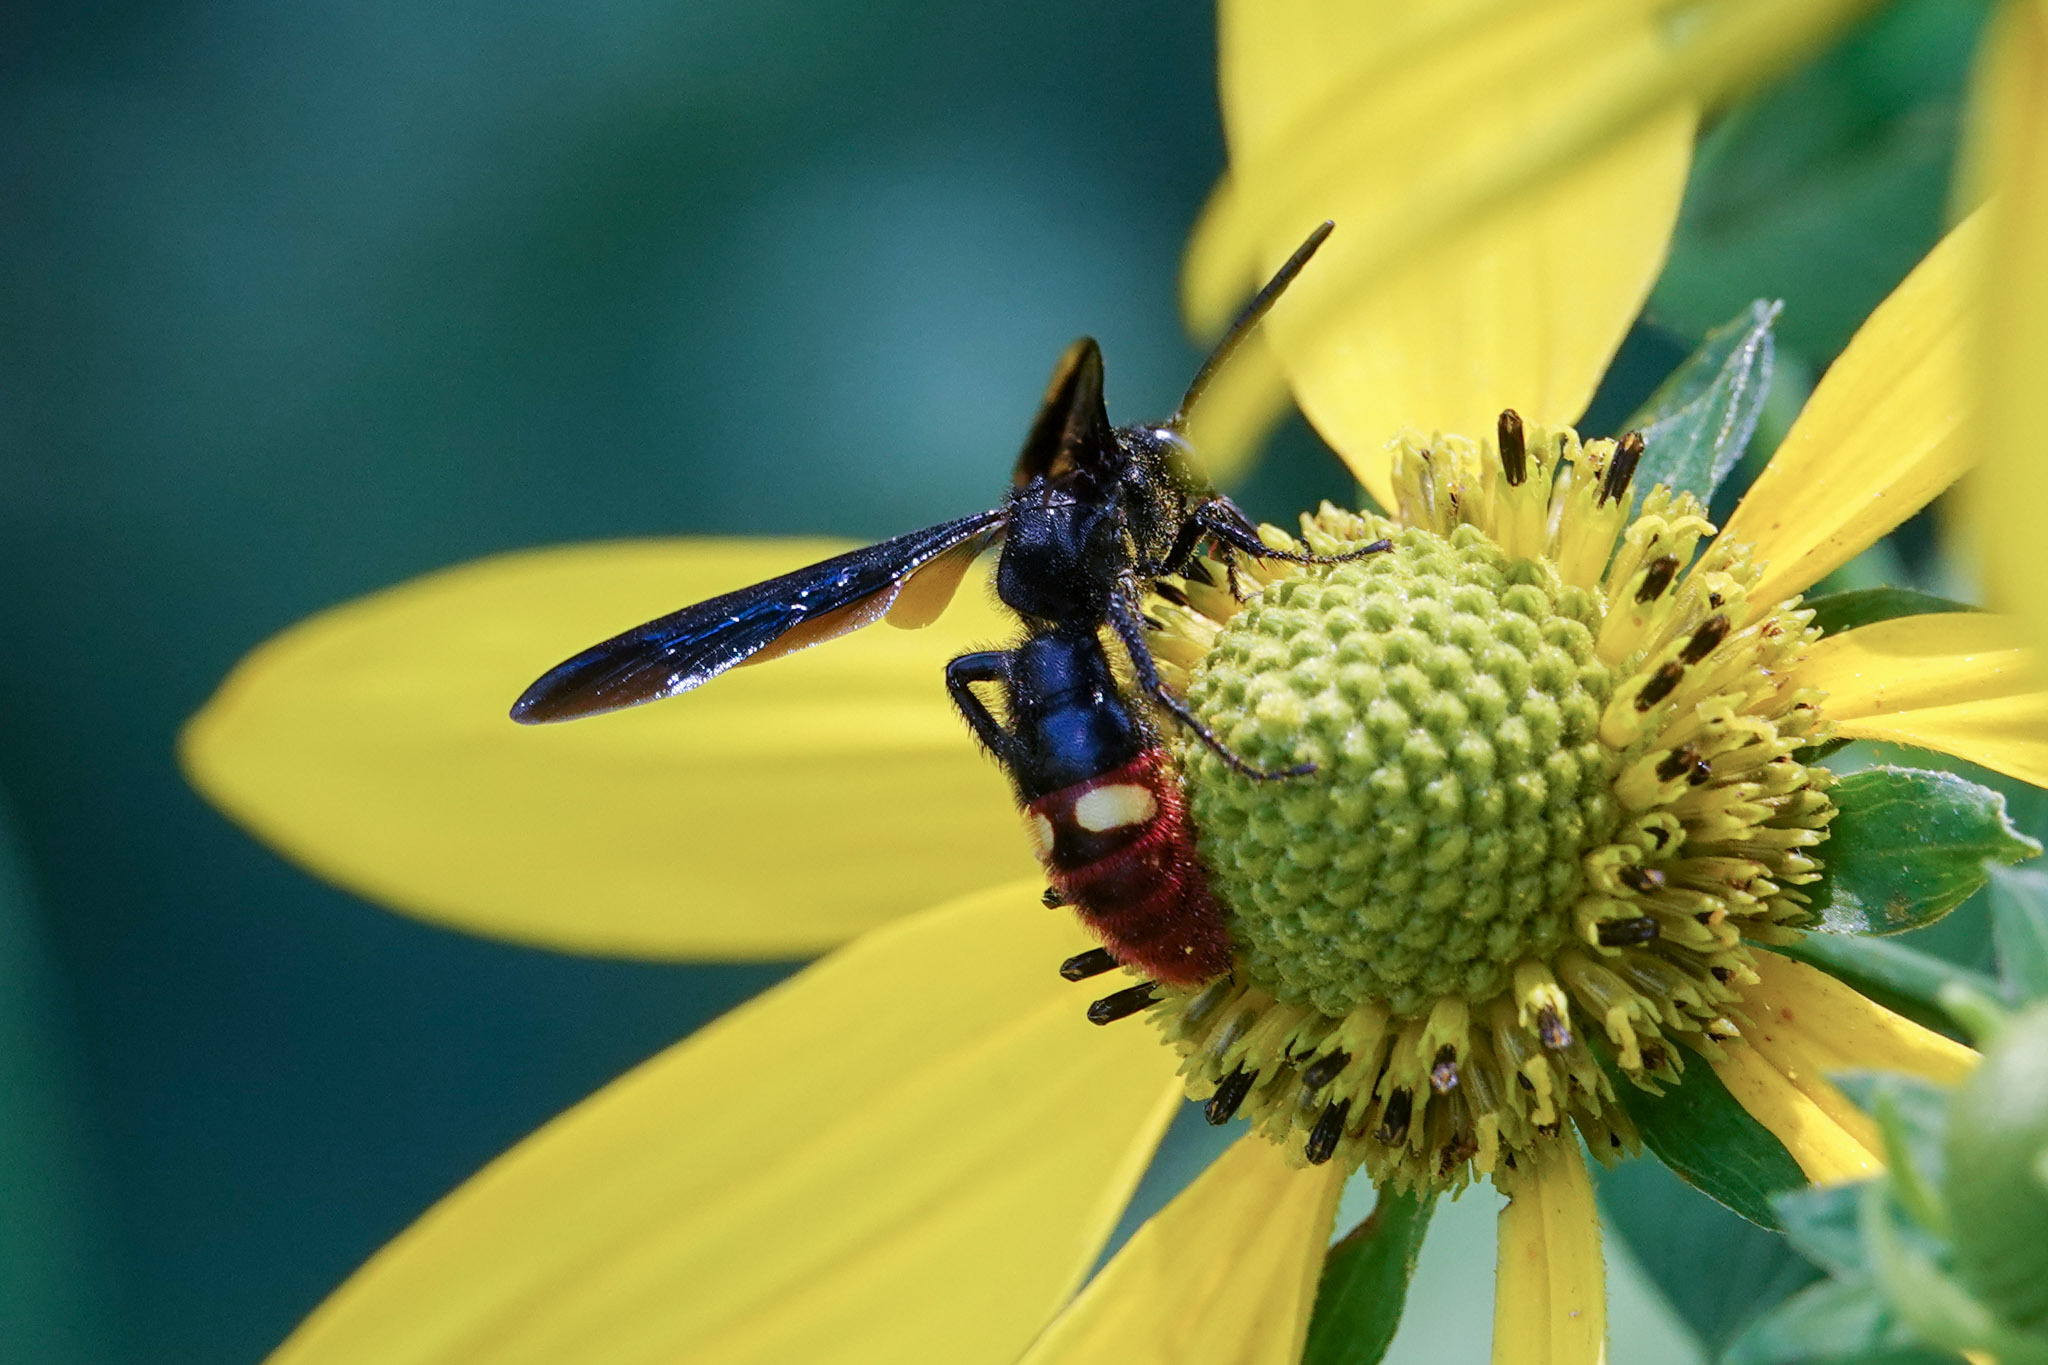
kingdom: Animalia
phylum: Arthropoda
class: Insecta
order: Hymenoptera
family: Scoliidae
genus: Scolia
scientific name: Scolia dubia
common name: Blue-winged scoliid wasp
